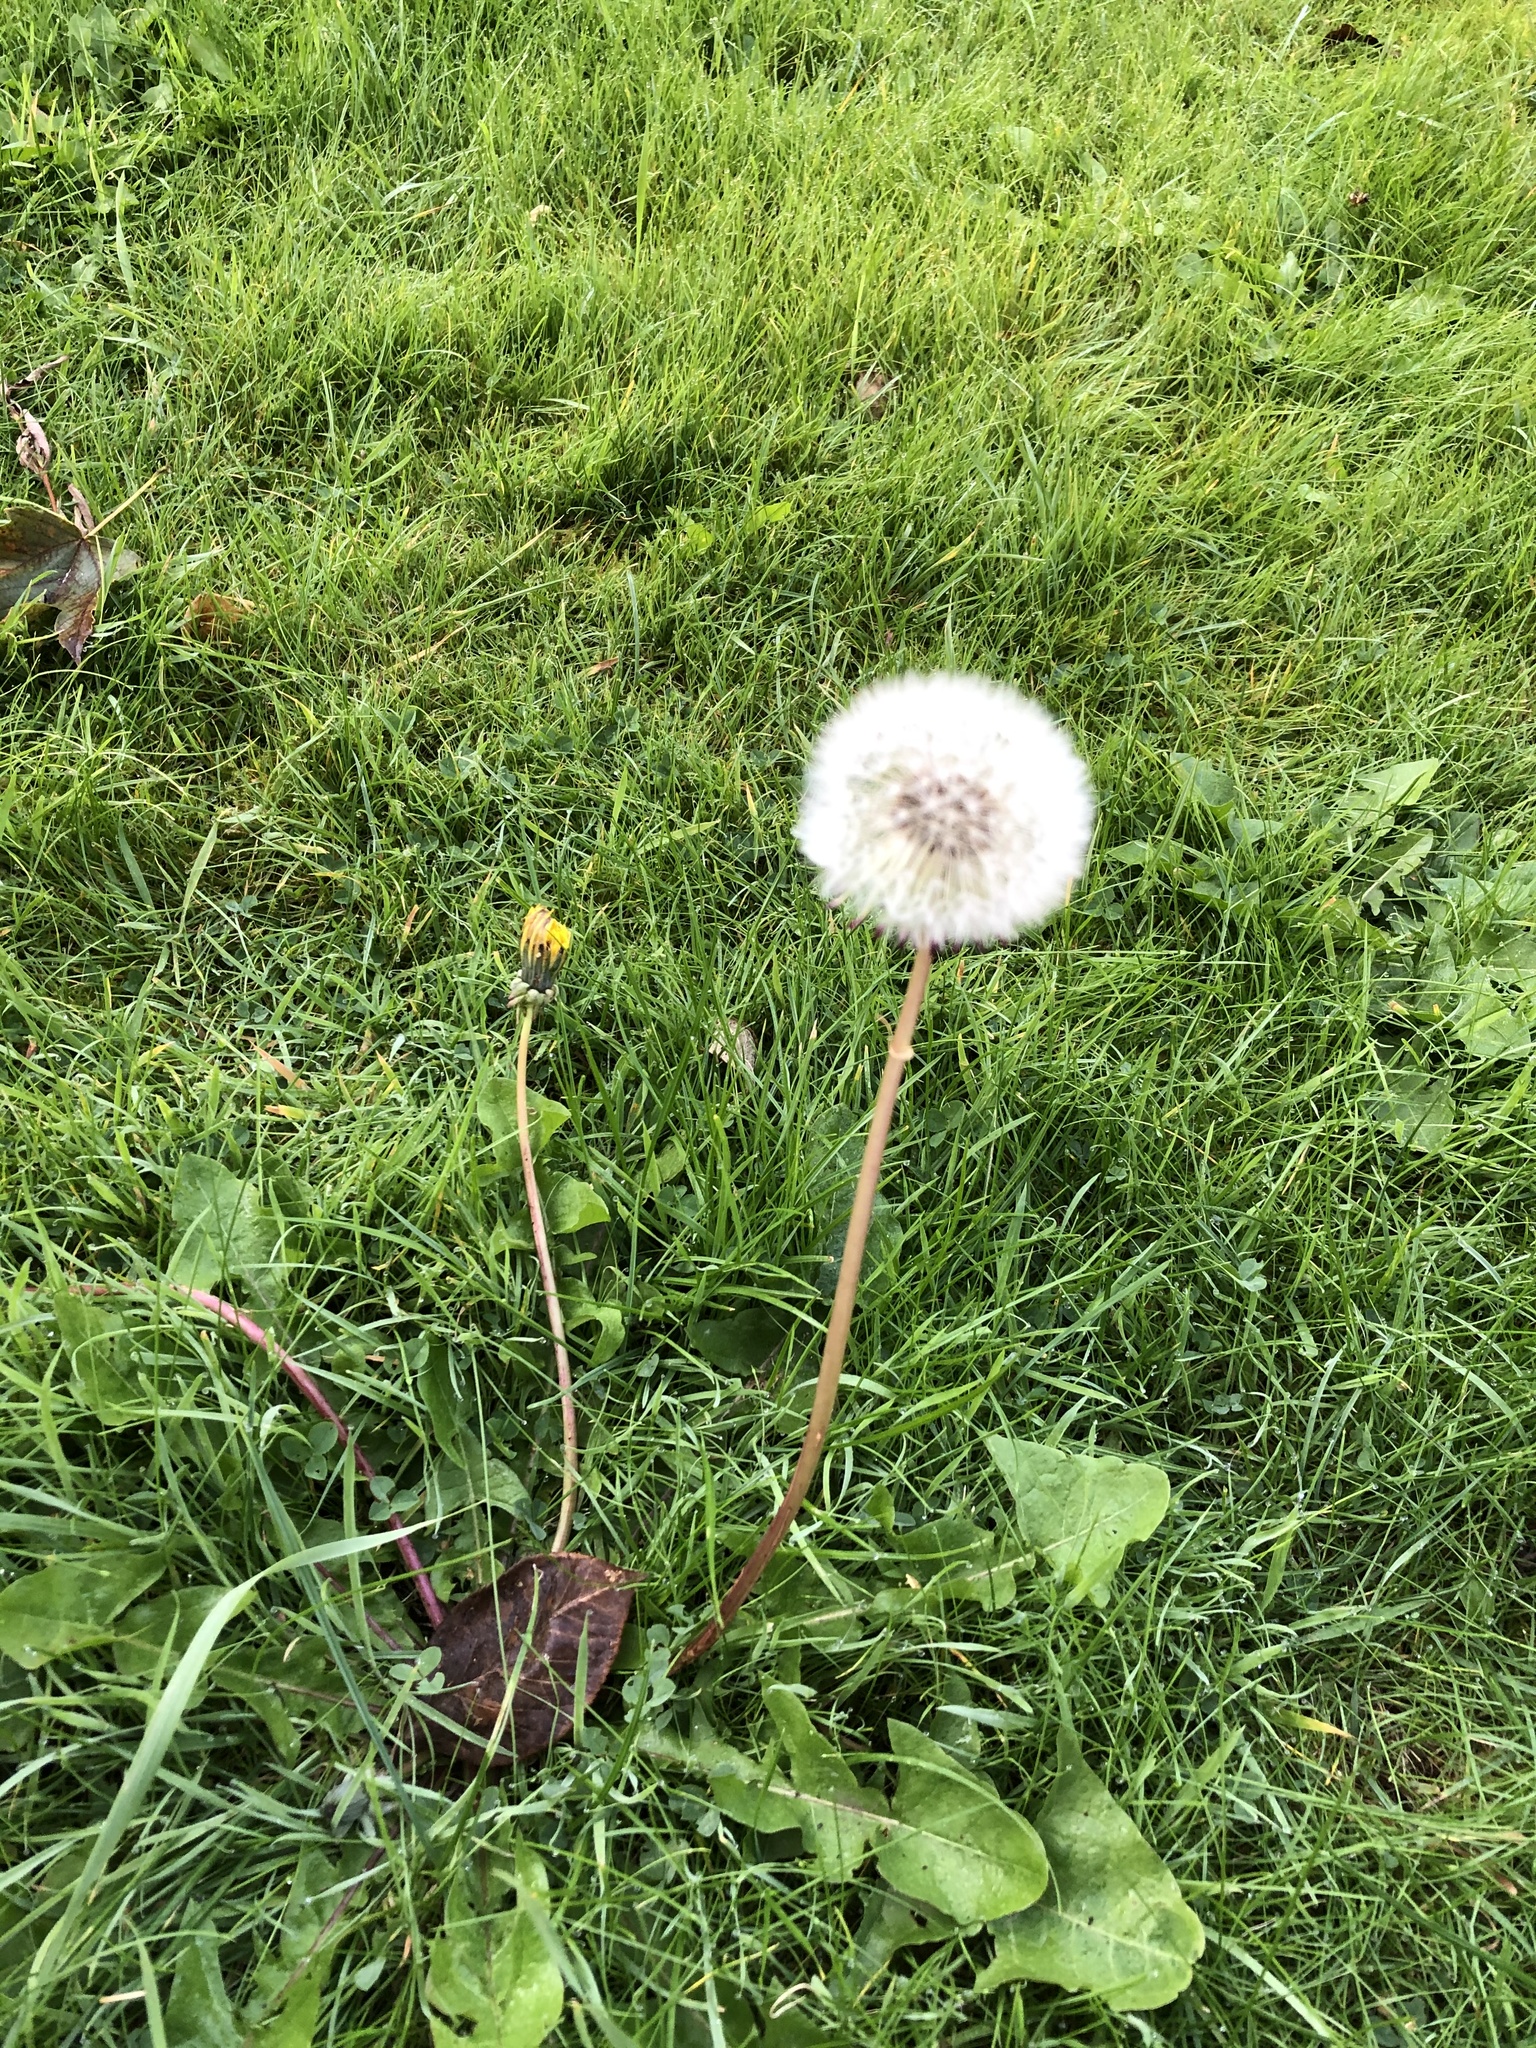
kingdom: Plantae
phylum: Tracheophyta
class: Magnoliopsida
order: Asterales
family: Asteraceae
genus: Taraxacum
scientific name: Taraxacum officinale
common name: Common dandelion
